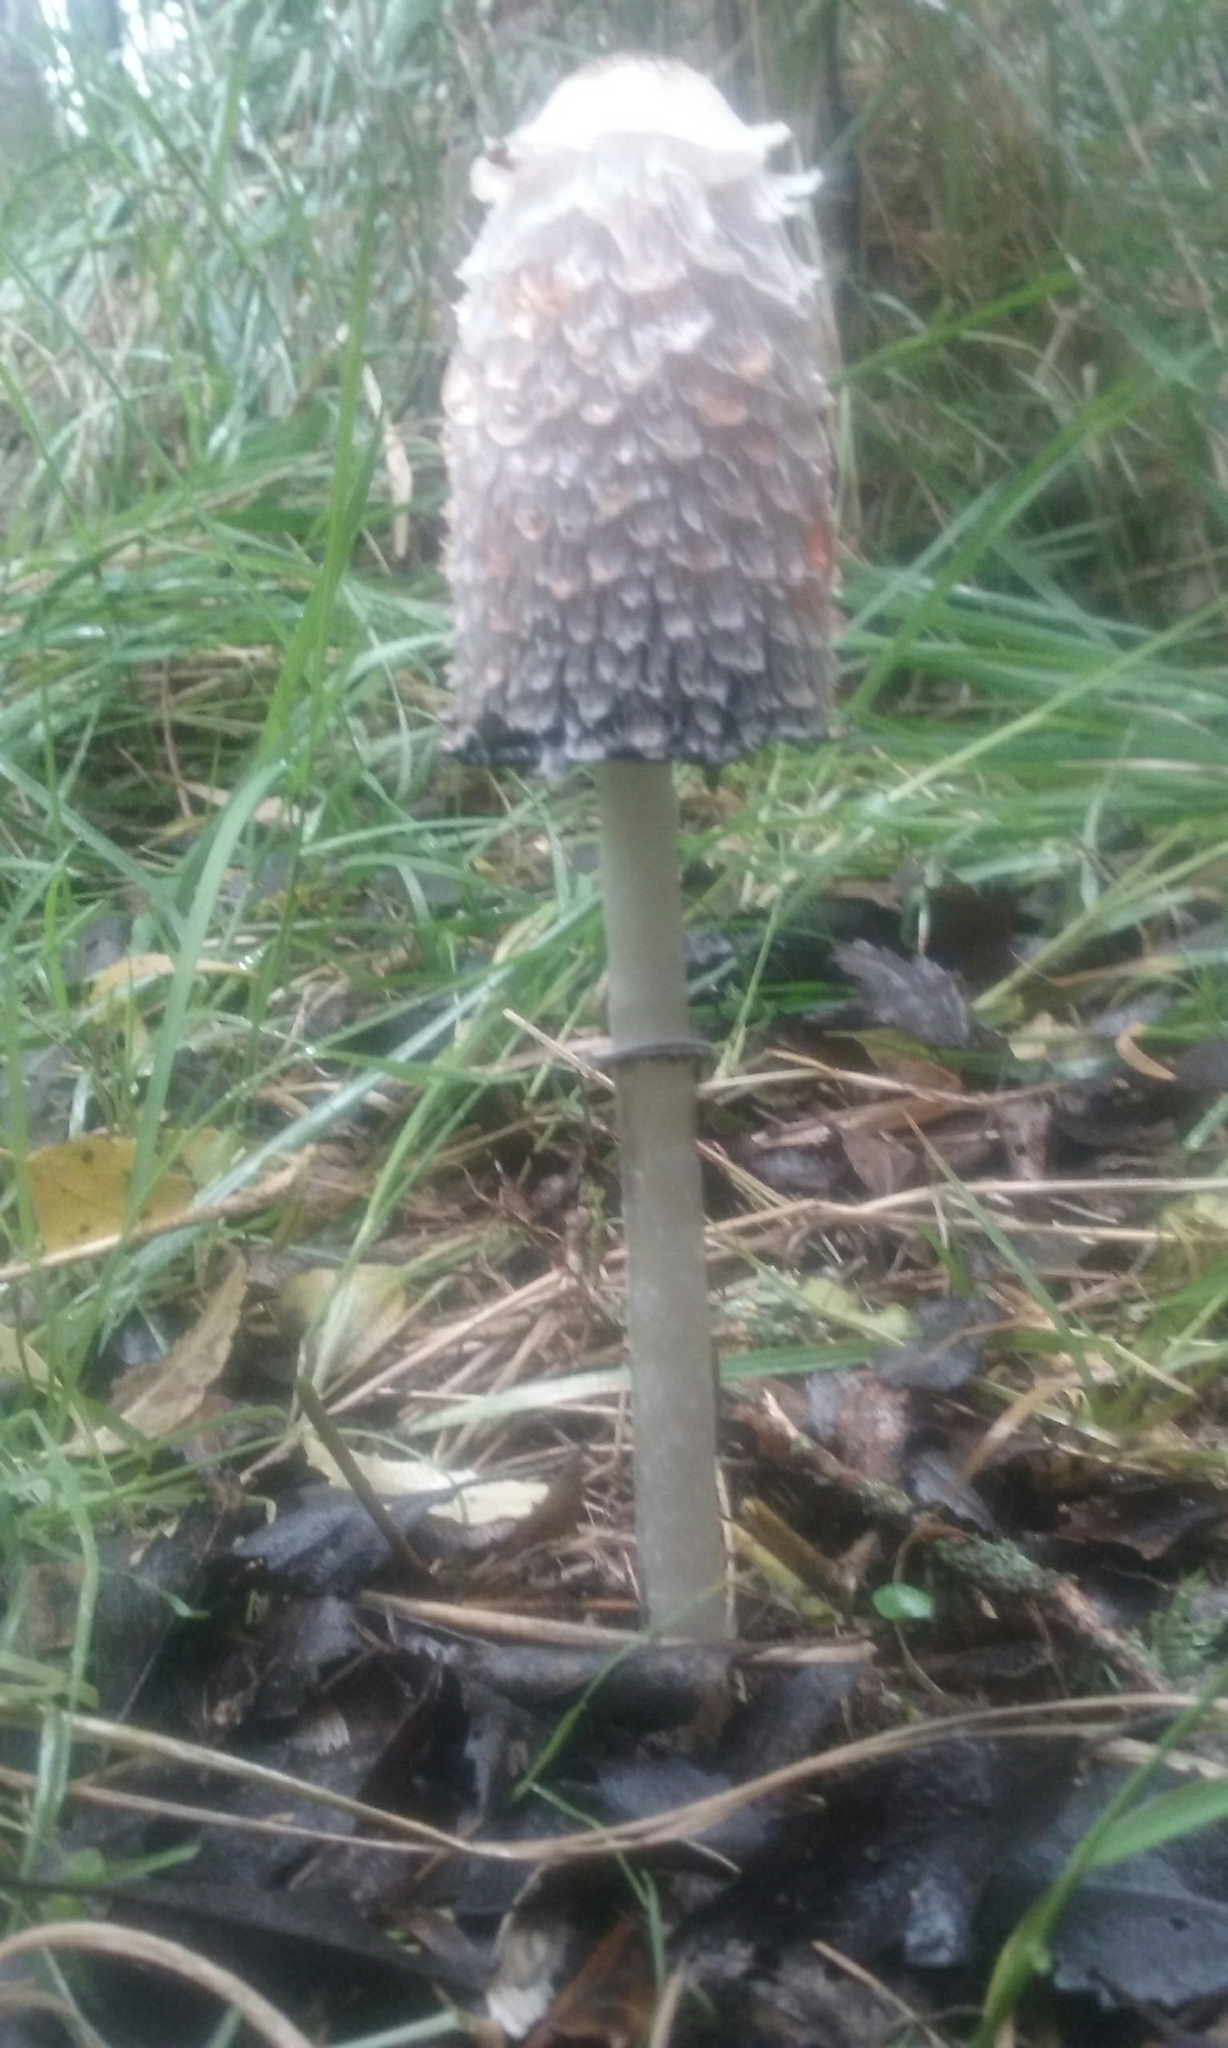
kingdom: Fungi
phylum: Basidiomycota
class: Agaricomycetes
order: Agaricales
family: Agaricaceae
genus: Coprinus
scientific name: Coprinus comatus
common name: Lawyer's wig
